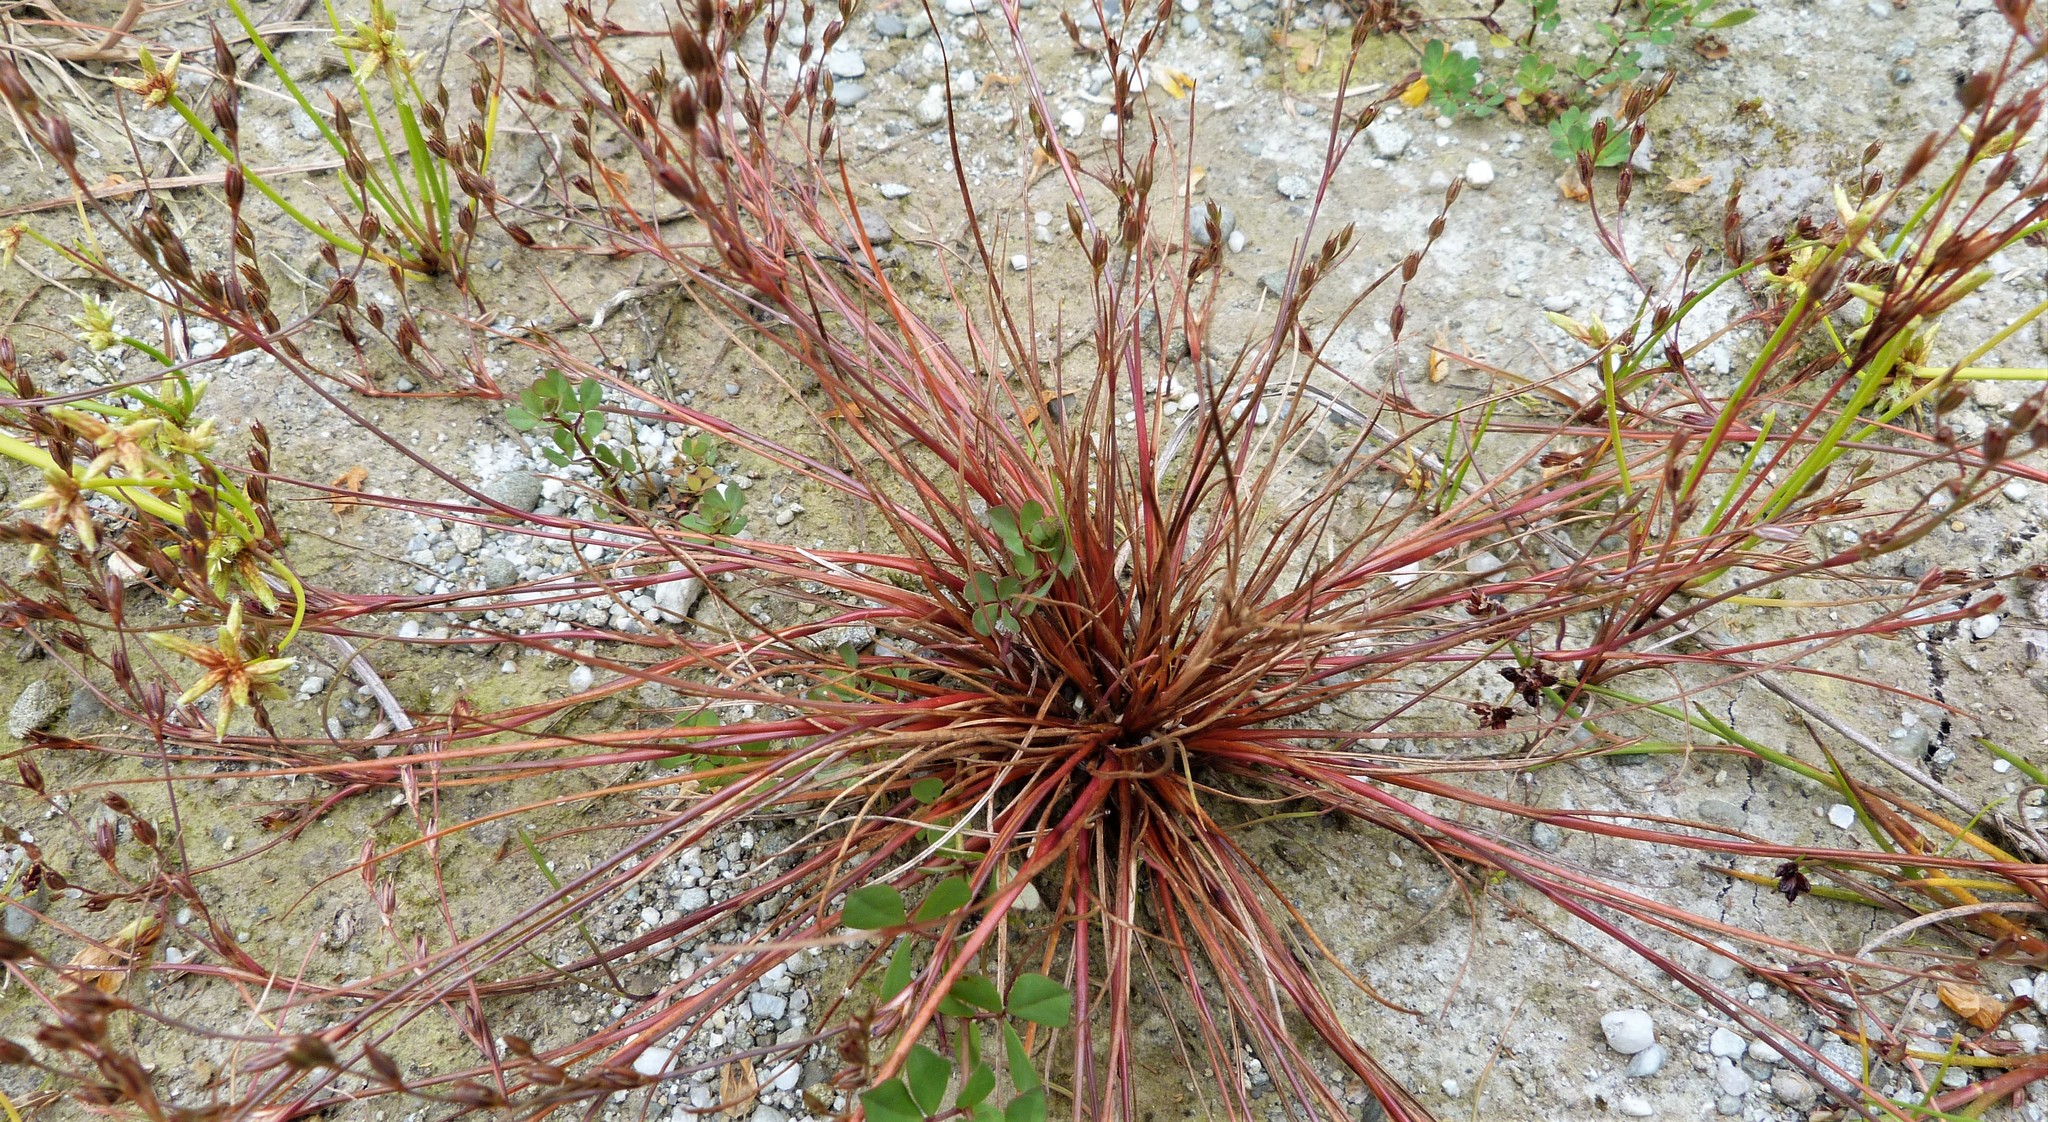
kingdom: Plantae
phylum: Tracheophyta
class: Liliopsida
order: Poales
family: Juncaceae
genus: Juncus
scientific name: Juncus bufonius
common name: Toad rush
